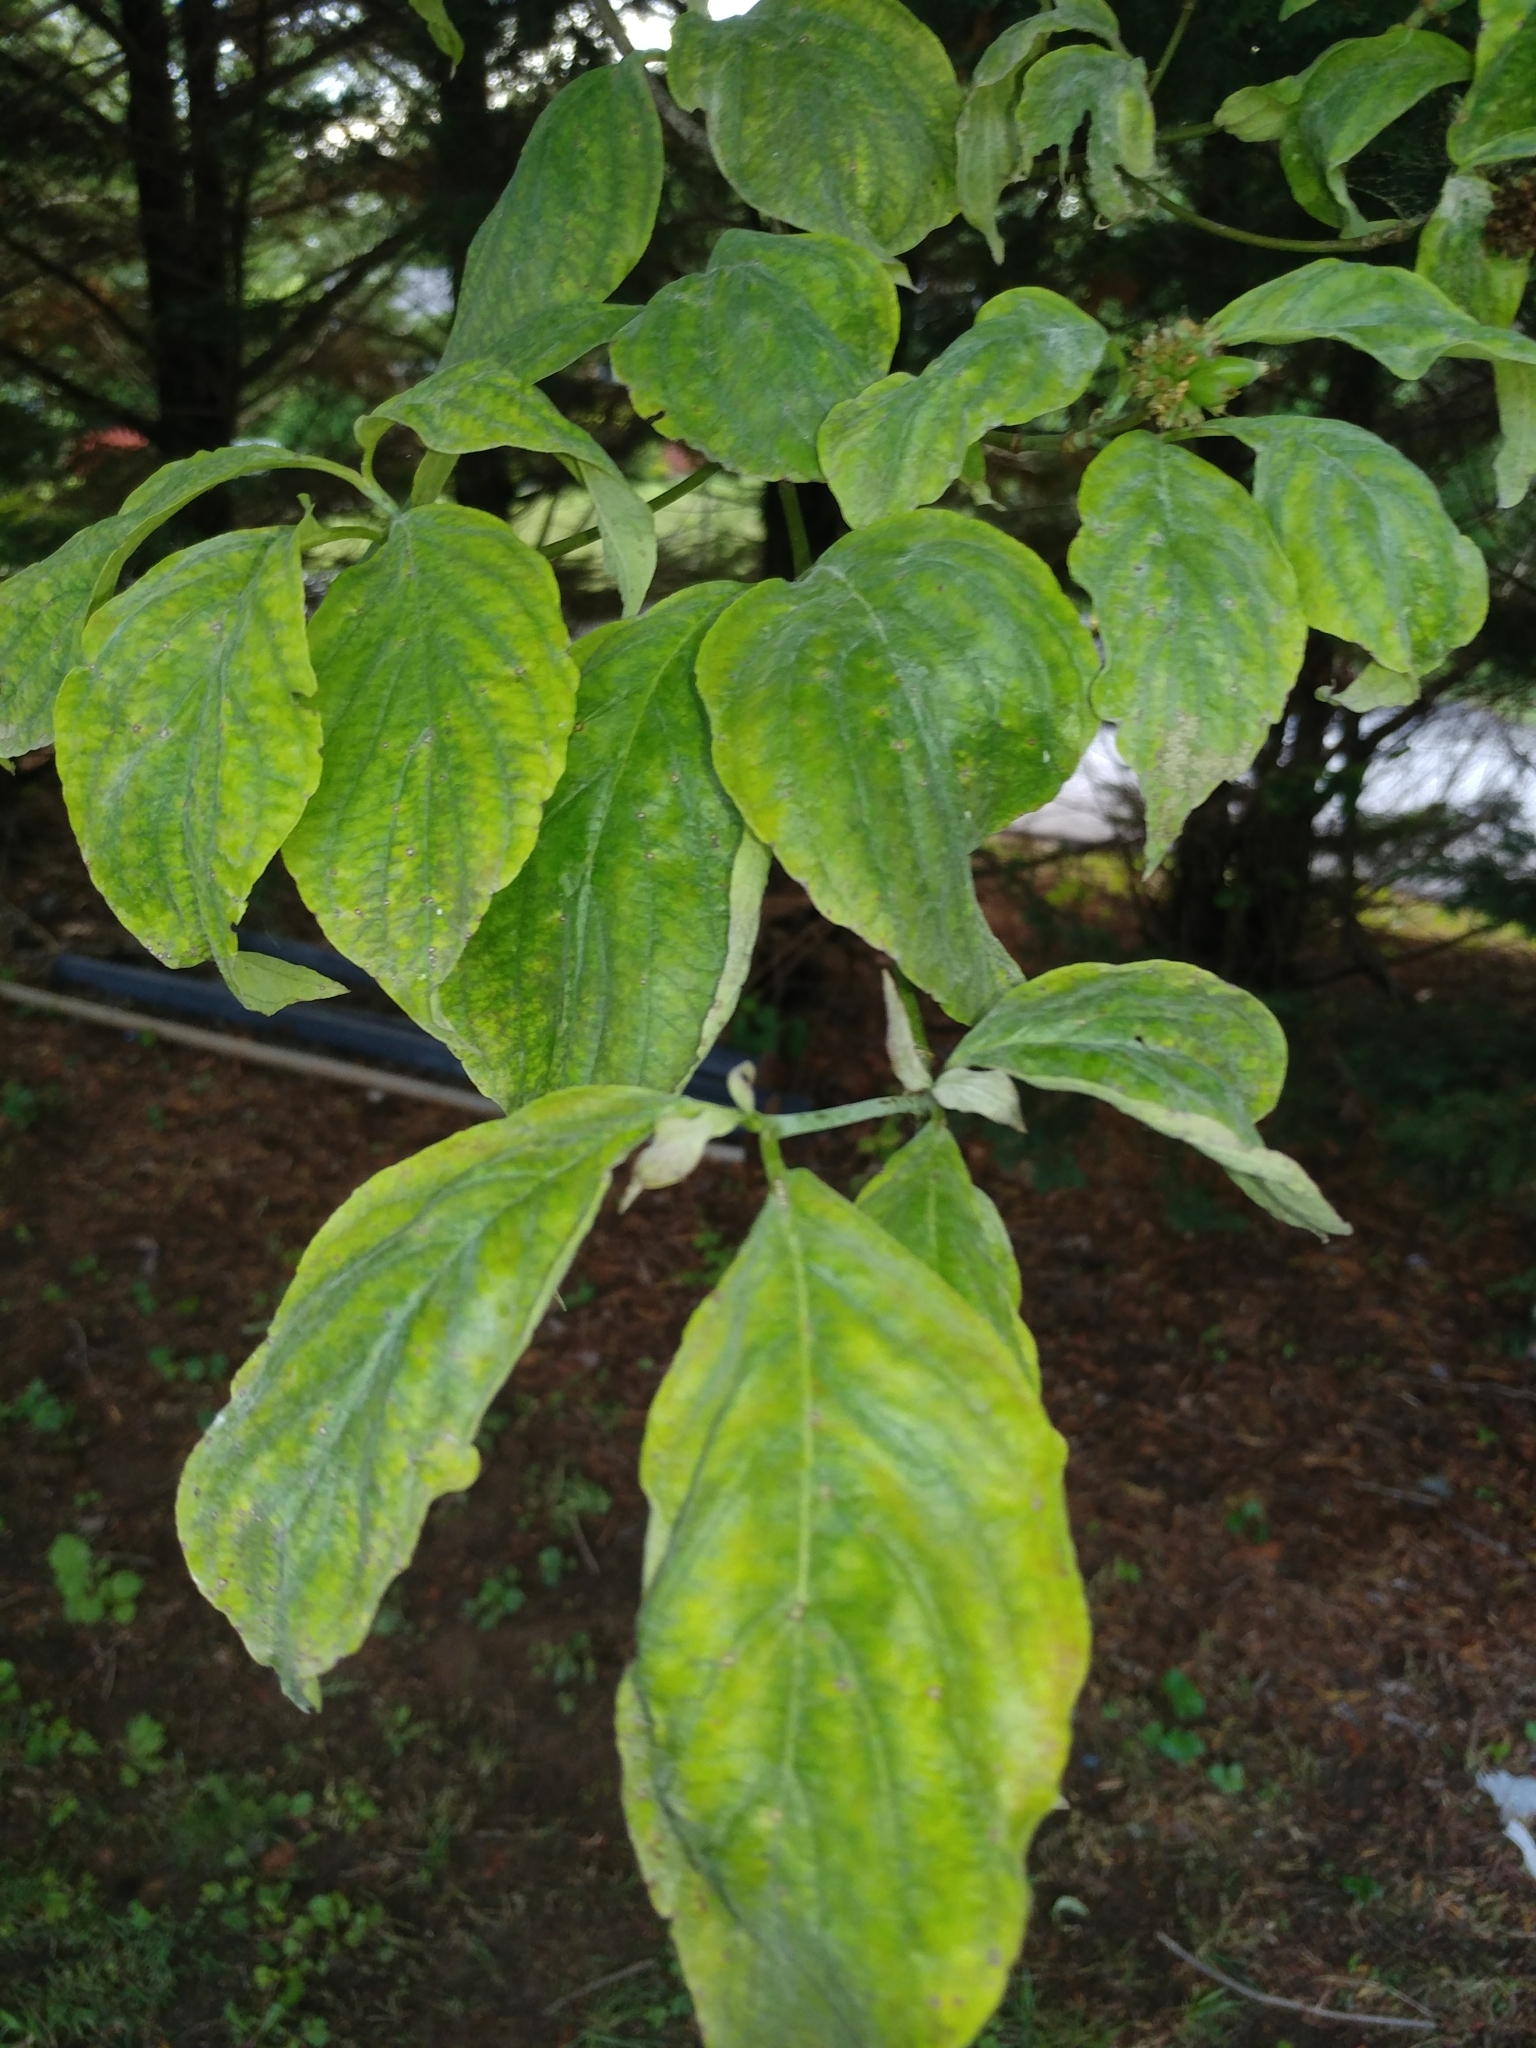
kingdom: Plantae
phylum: Tracheophyta
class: Magnoliopsida
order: Cornales
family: Cornaceae
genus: Cornus
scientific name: Cornus florida
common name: Flowering dogwood
